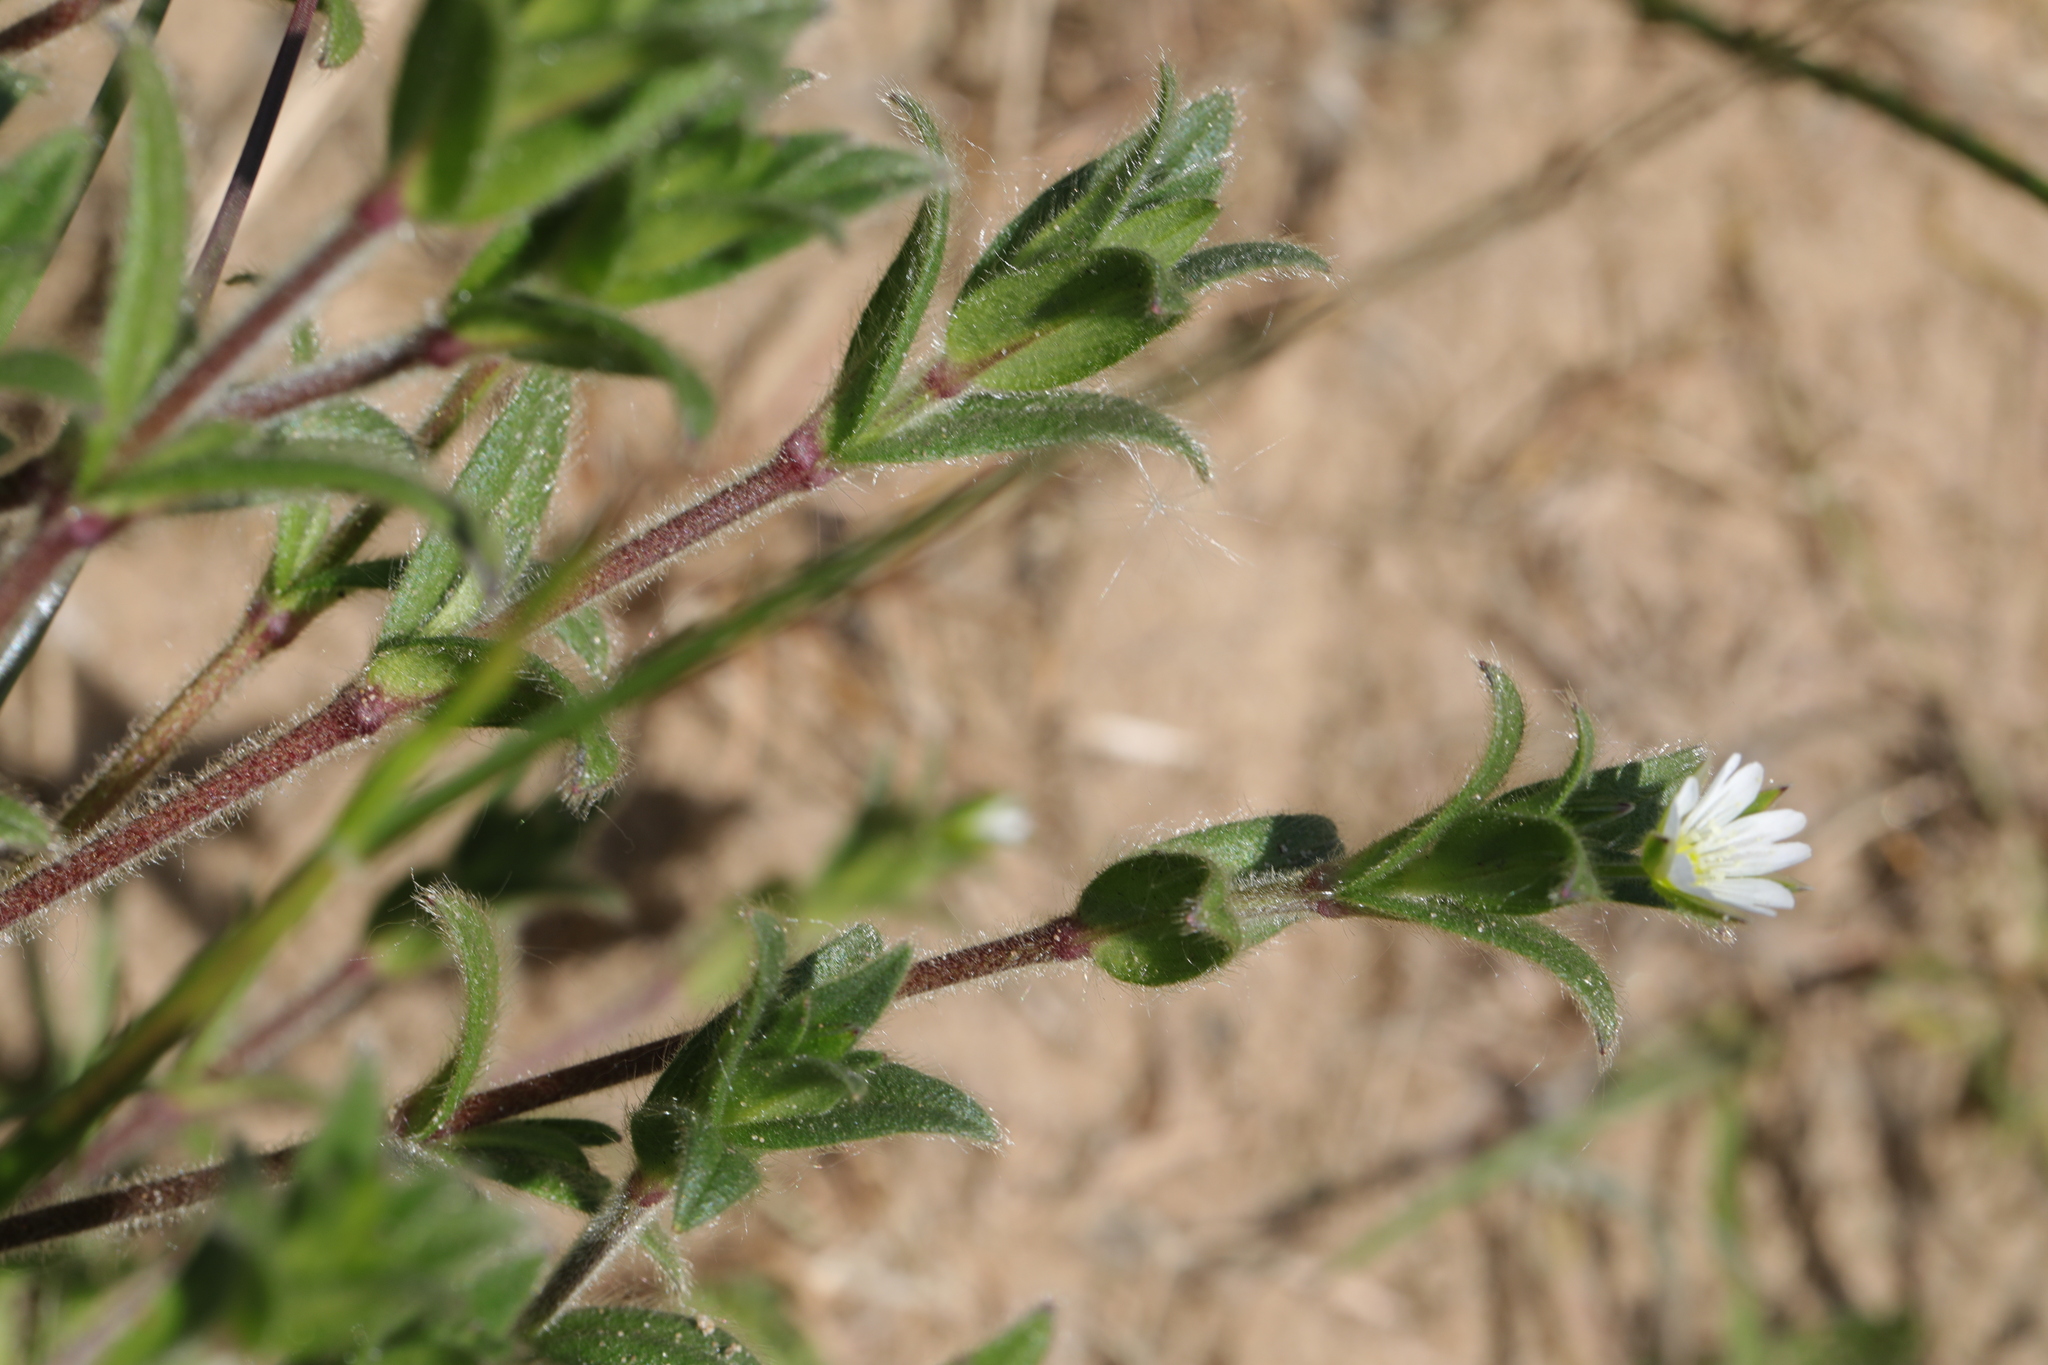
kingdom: Plantae
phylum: Tracheophyta
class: Magnoliopsida
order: Caryophyllales
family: Caryophyllaceae
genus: Cerastium
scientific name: Cerastium fontanum
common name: Common mouse-ear
